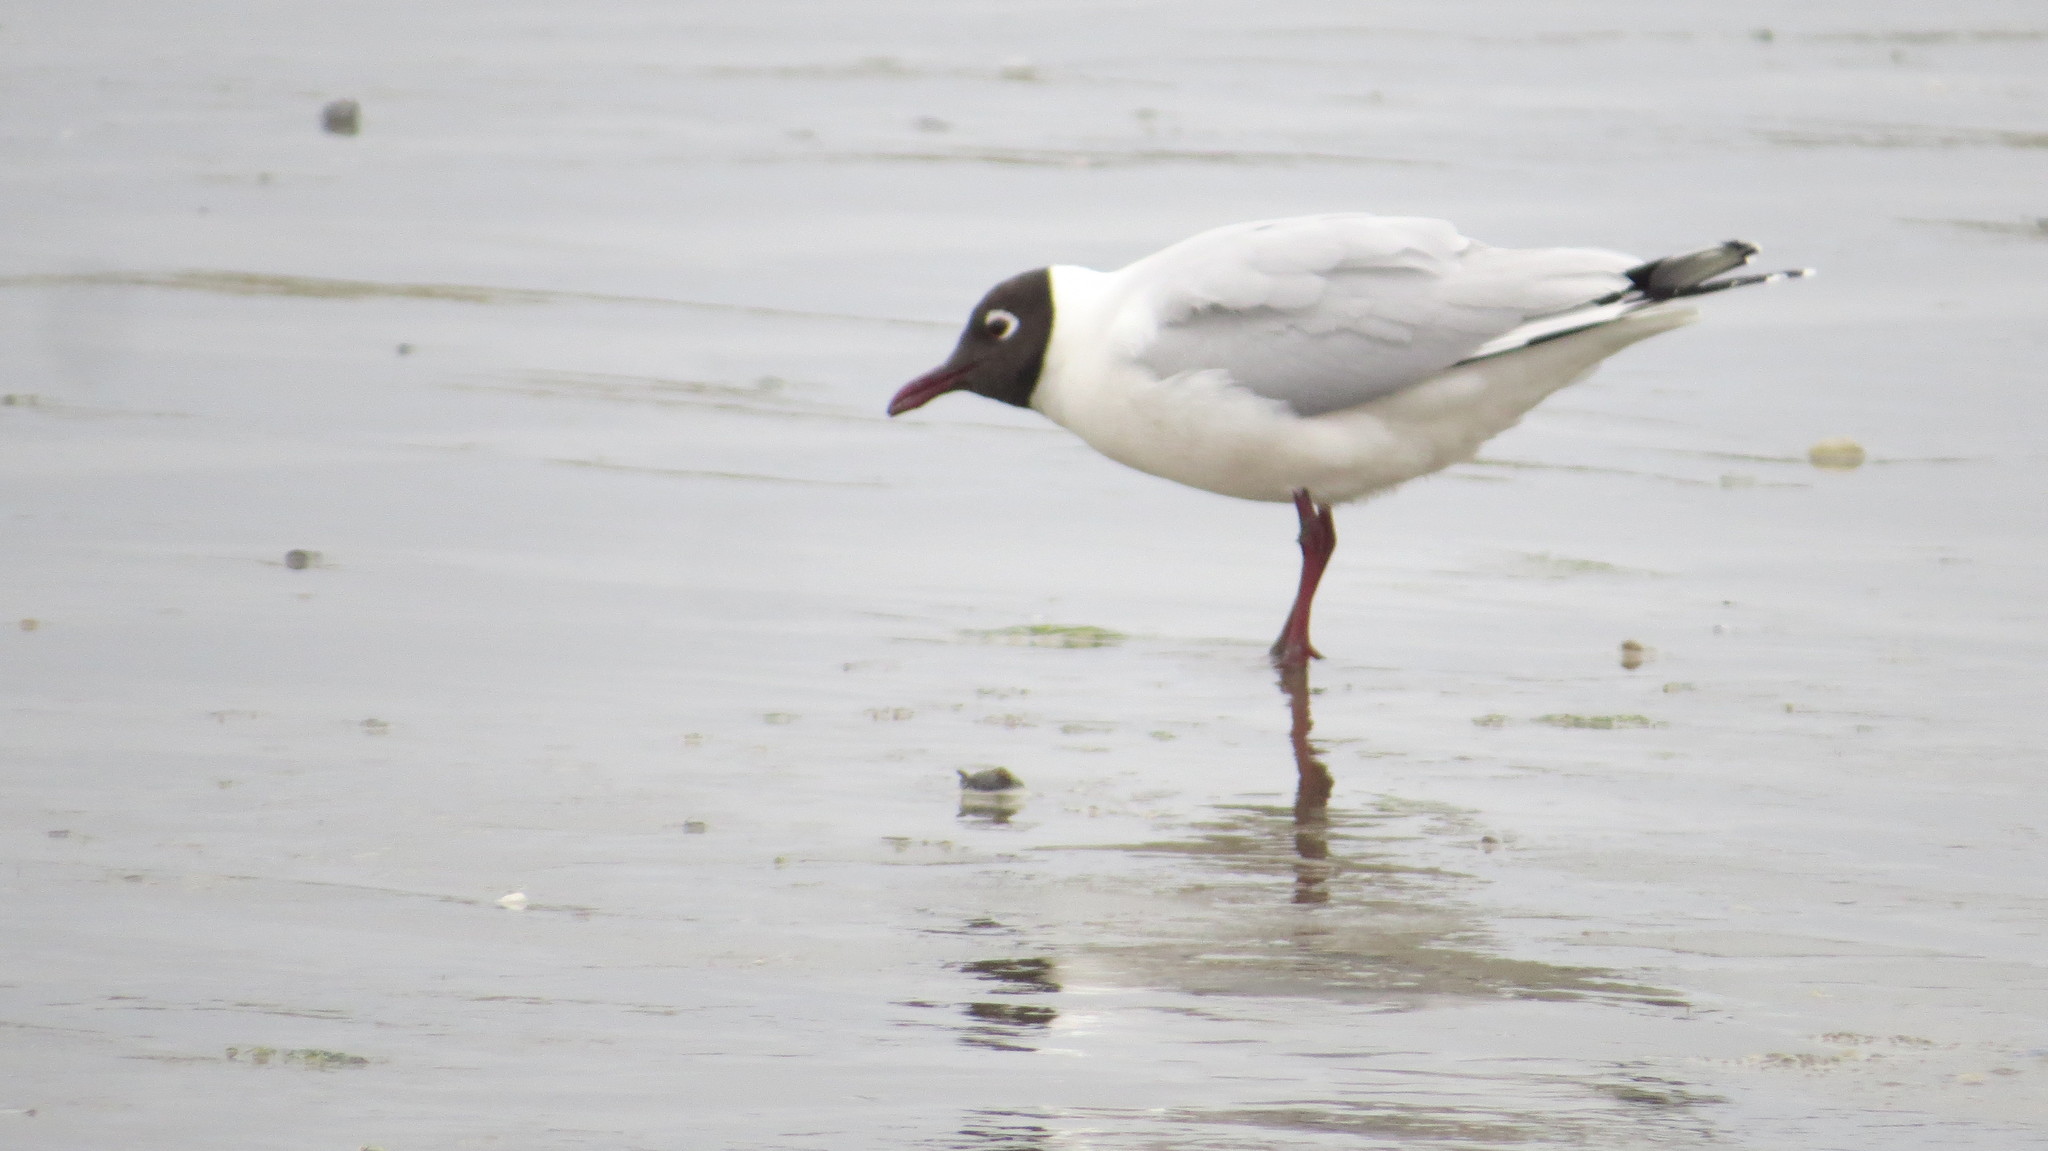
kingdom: Animalia
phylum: Chordata
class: Aves
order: Charadriiformes
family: Laridae
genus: Chroicocephalus
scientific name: Chroicocephalus maculipennis
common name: Brown-hooded gull
